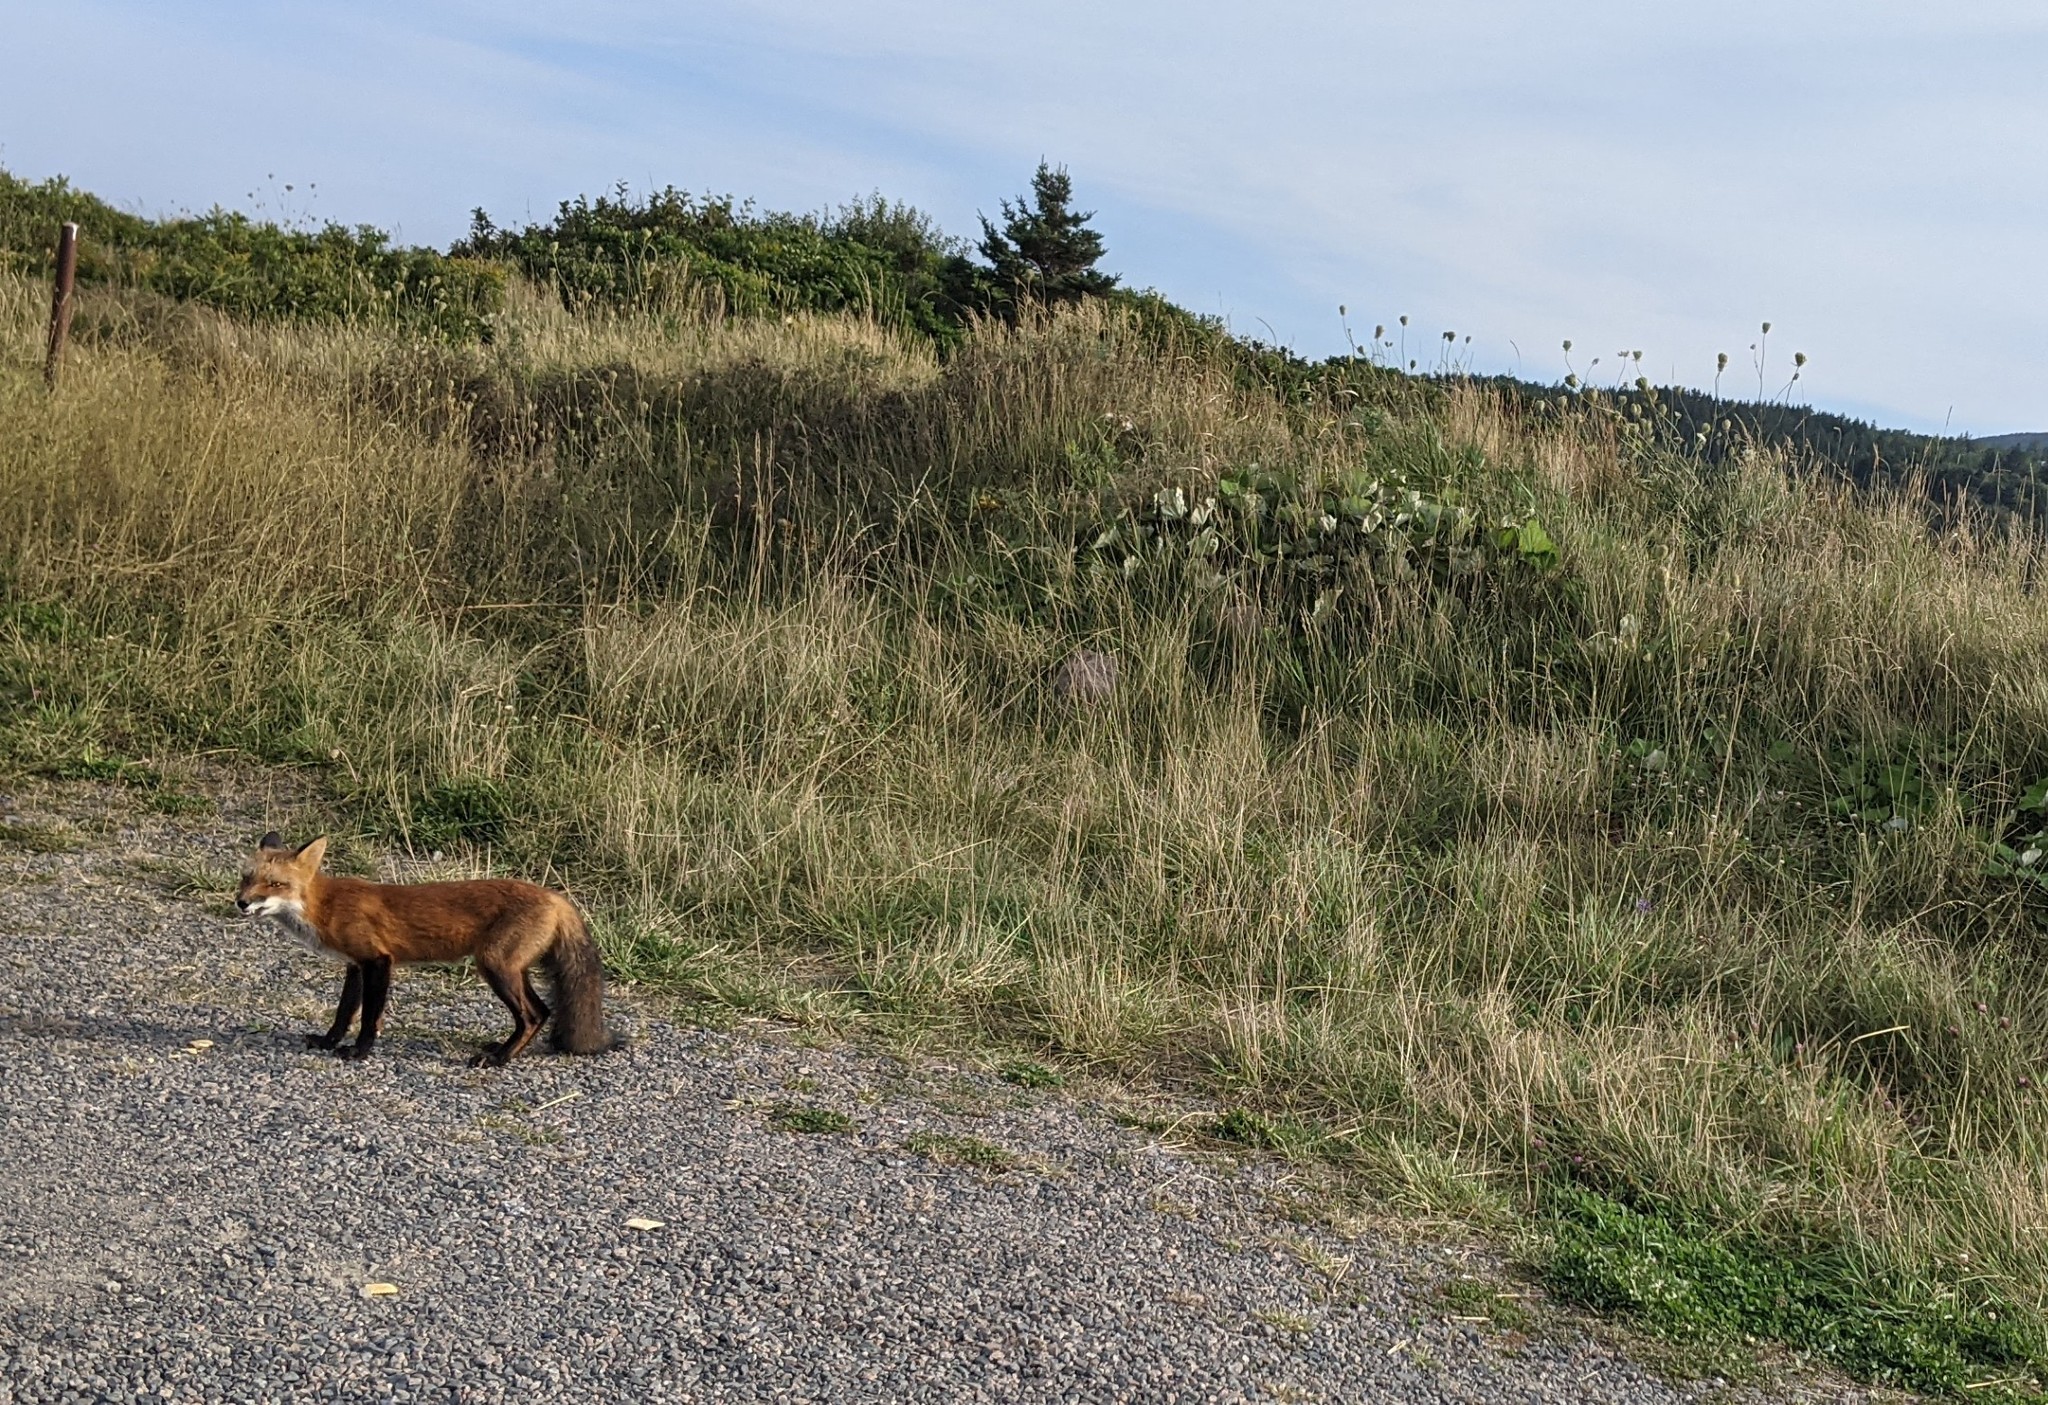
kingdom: Animalia
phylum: Chordata
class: Mammalia
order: Carnivora
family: Canidae
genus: Vulpes
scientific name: Vulpes vulpes
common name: Red fox
